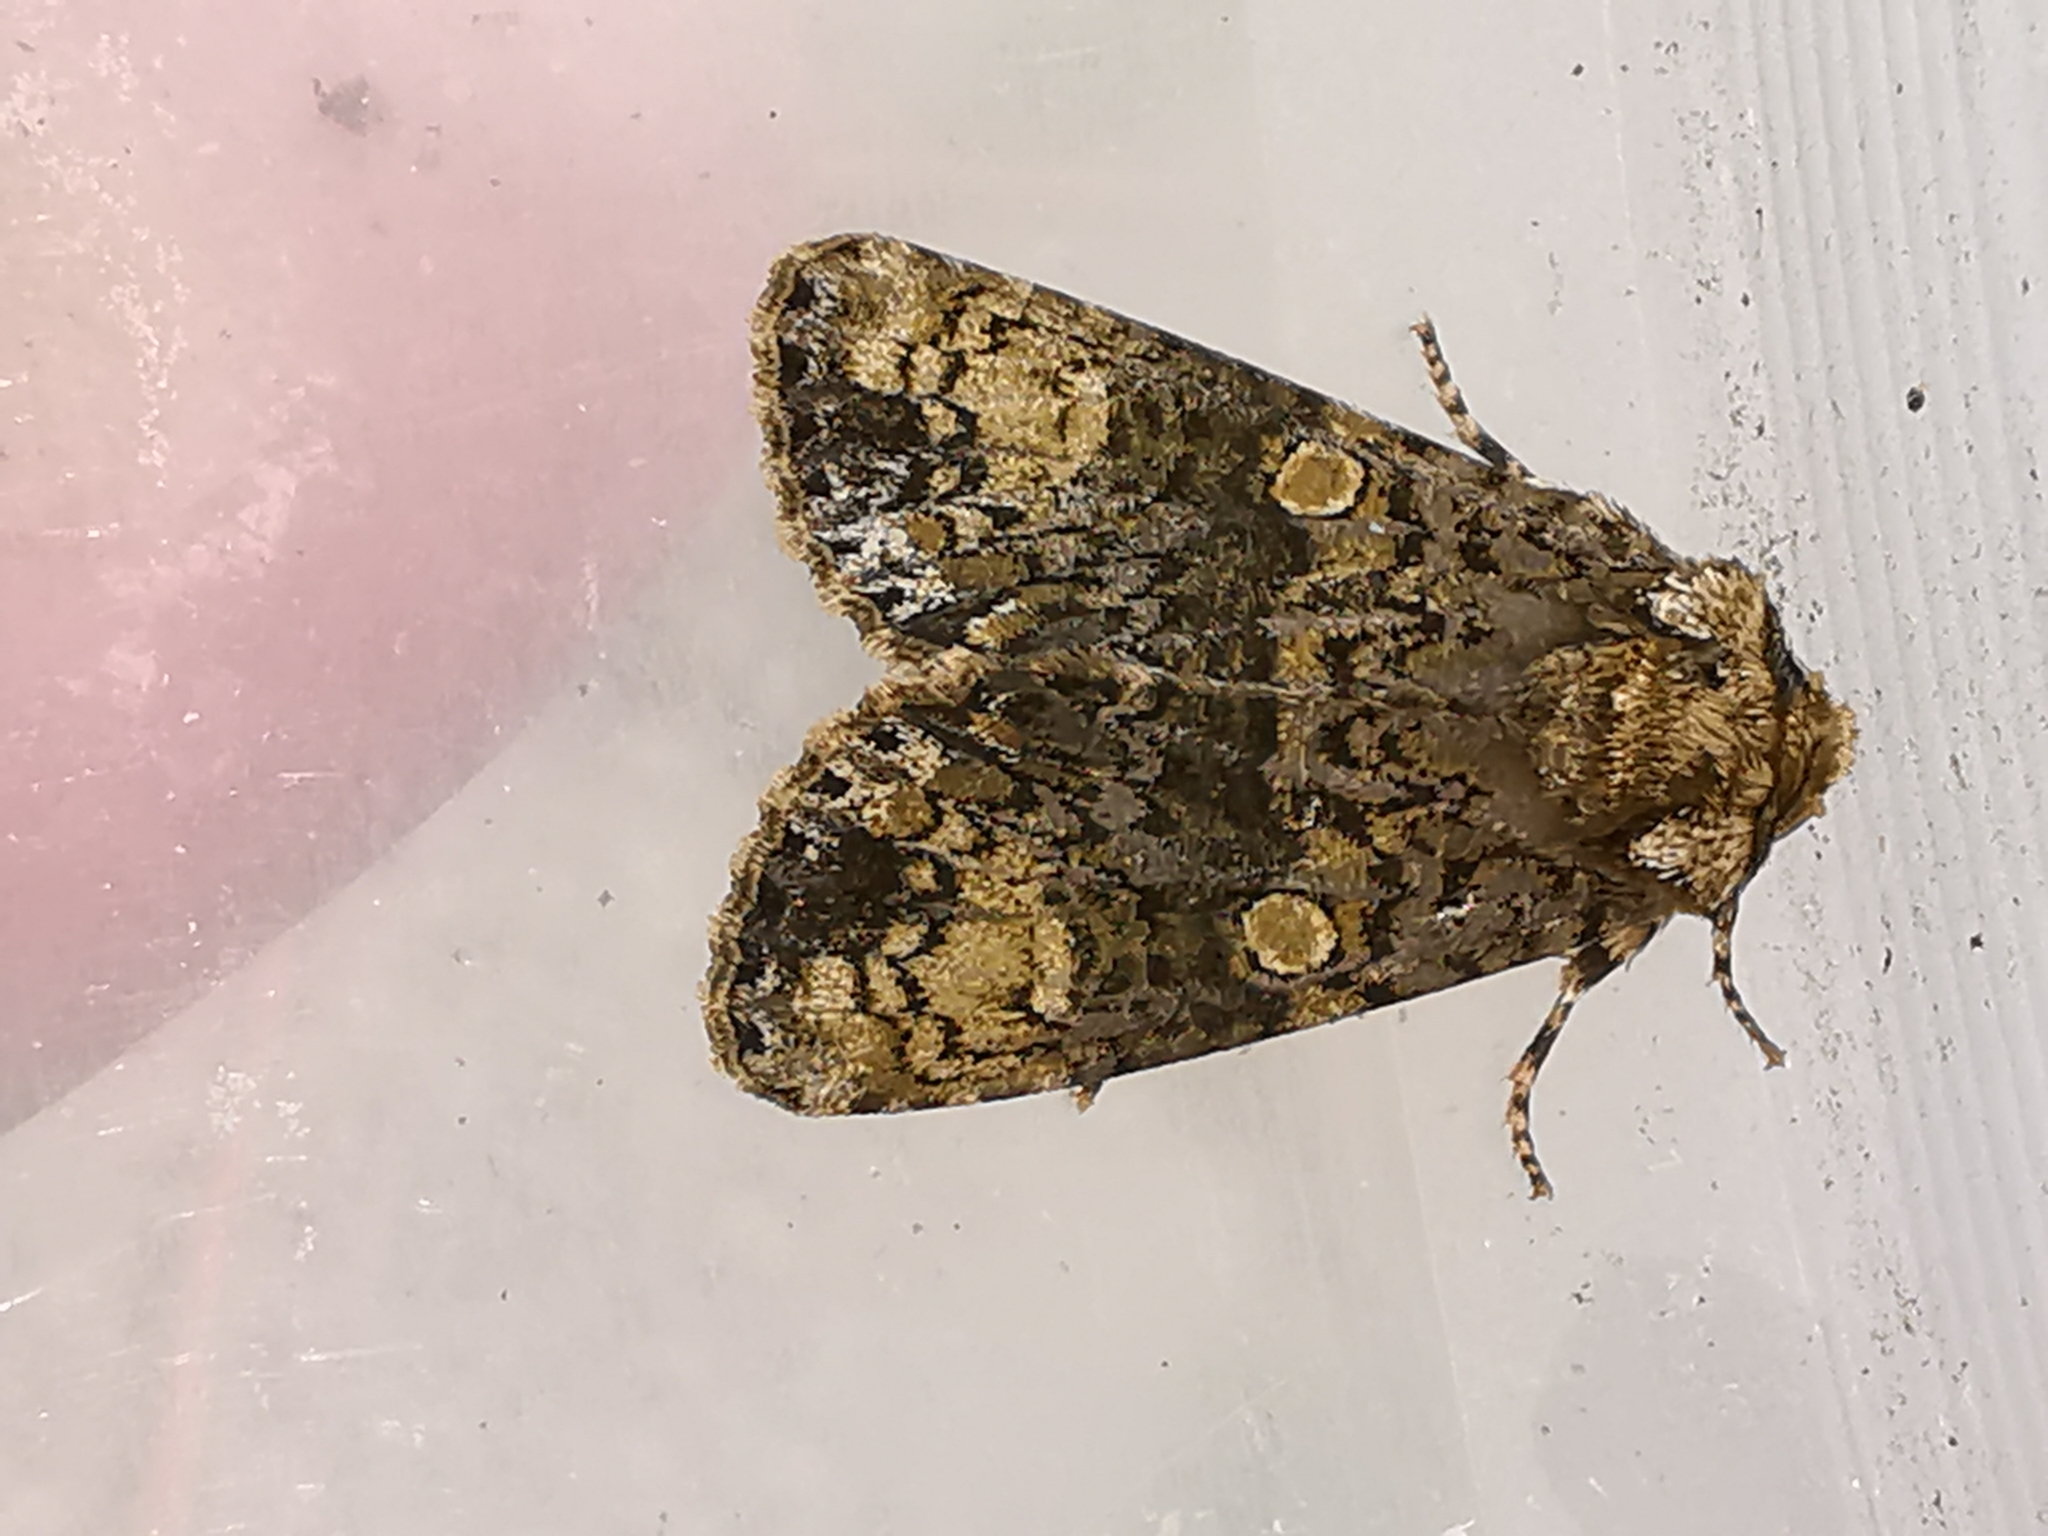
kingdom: Animalia
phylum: Arthropoda
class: Insecta
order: Lepidoptera
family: Noctuidae
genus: Craniophora
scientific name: Craniophora ligustri
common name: Coronet
